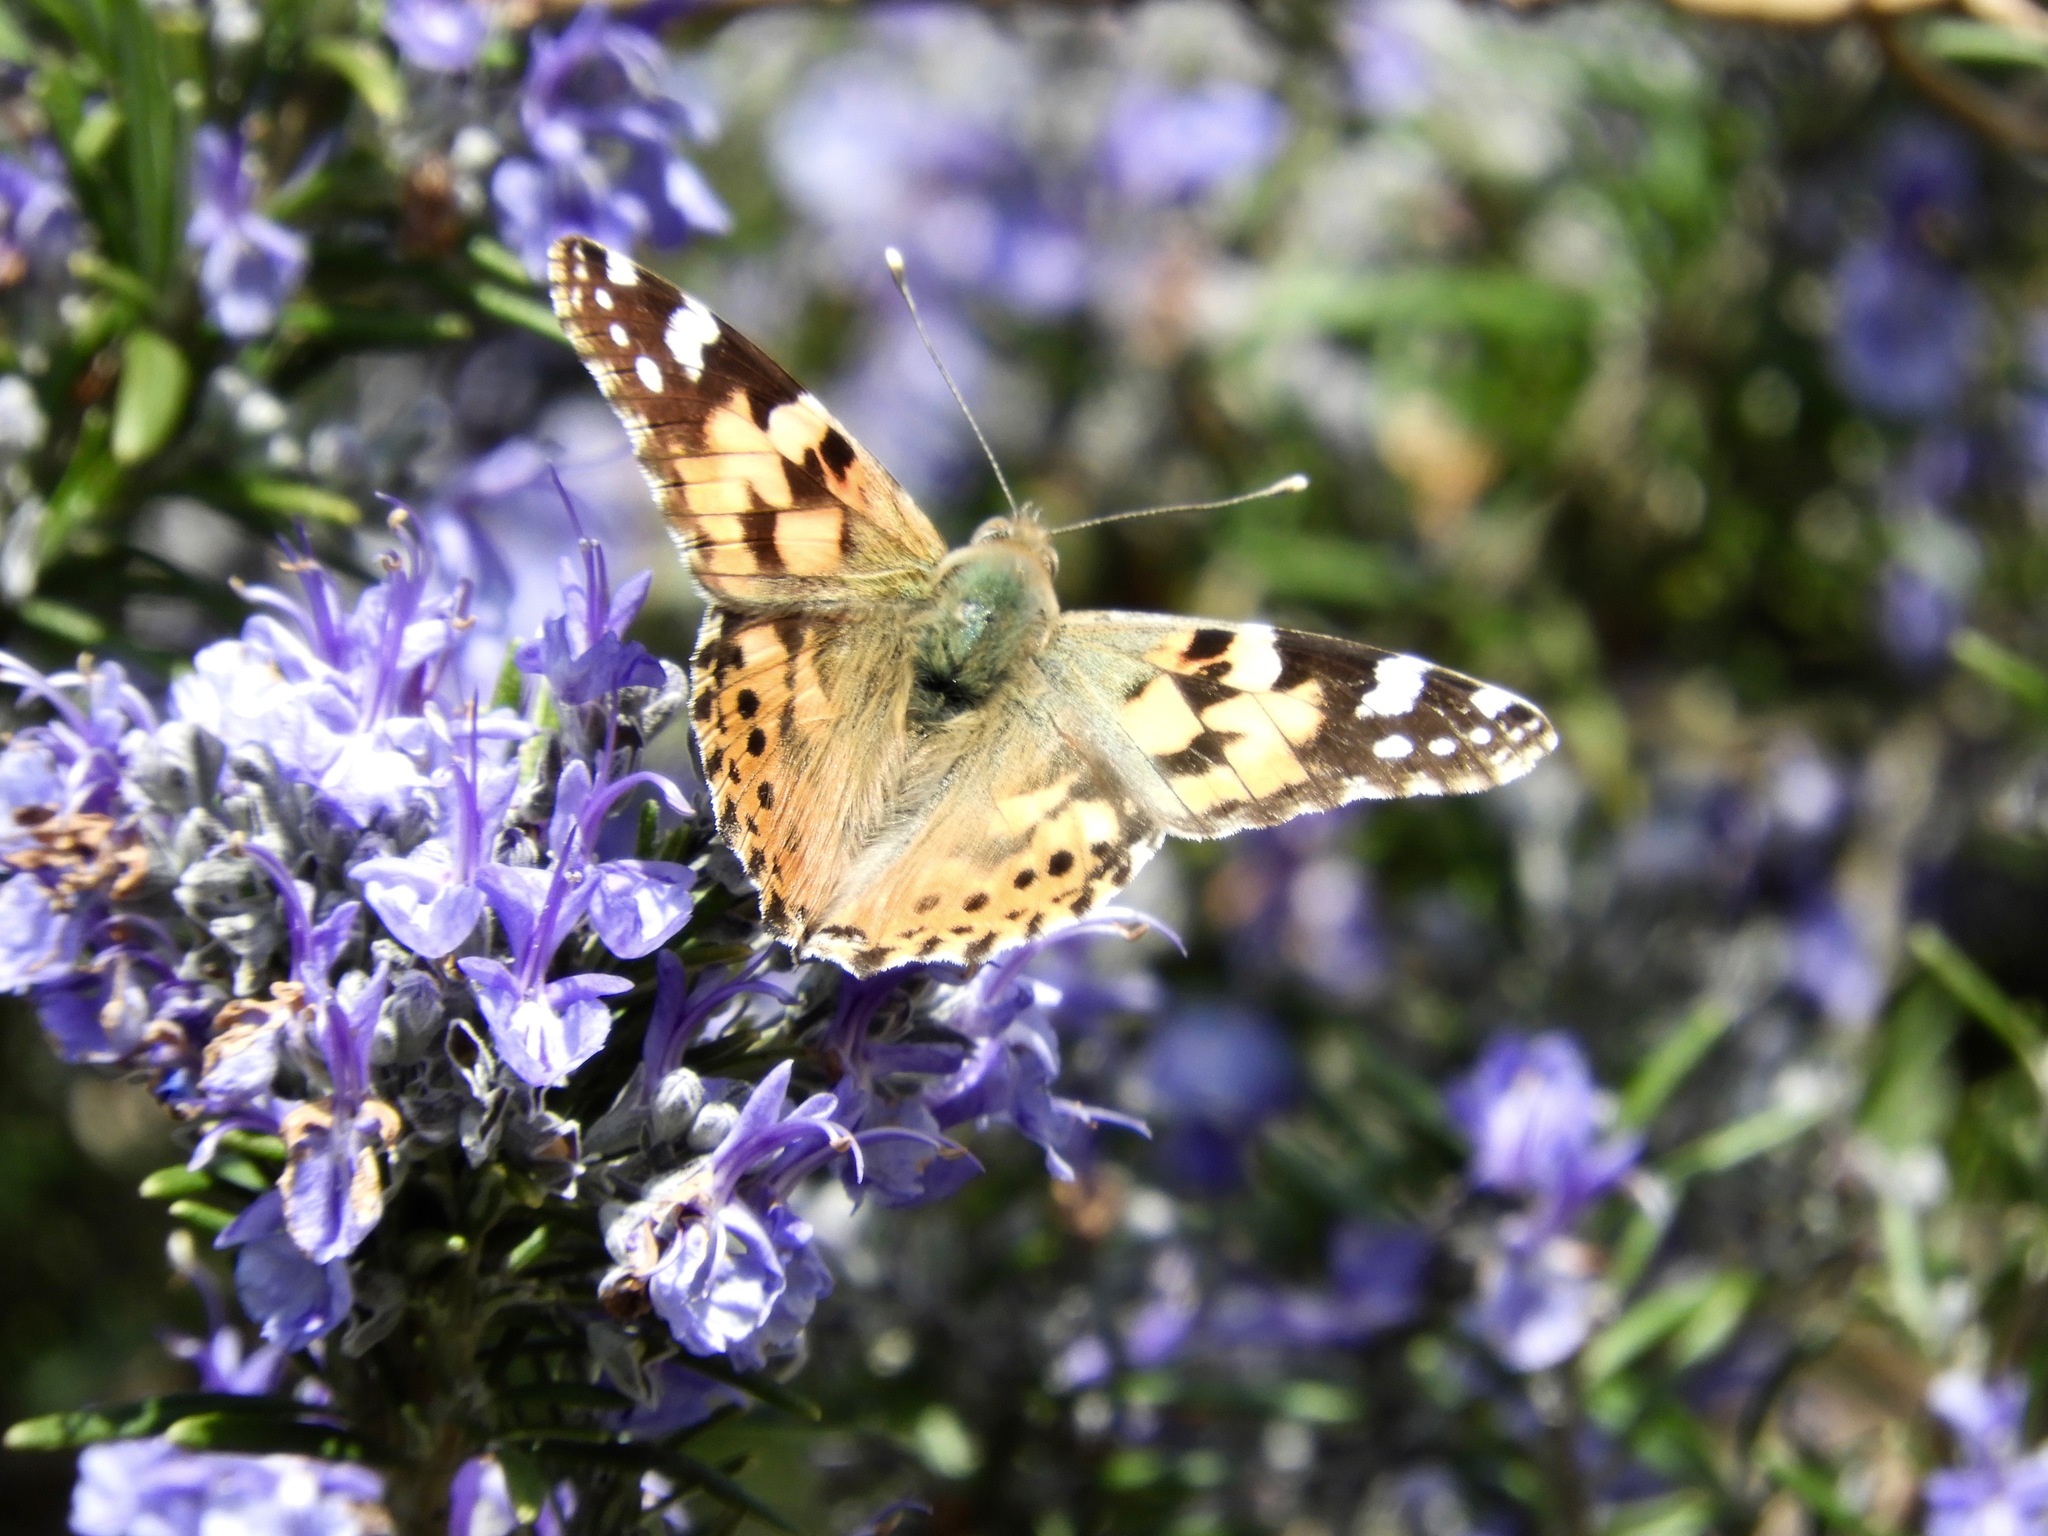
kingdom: Animalia
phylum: Arthropoda
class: Insecta
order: Lepidoptera
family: Nymphalidae
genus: Vanessa
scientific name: Vanessa cardui
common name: Painted lady
